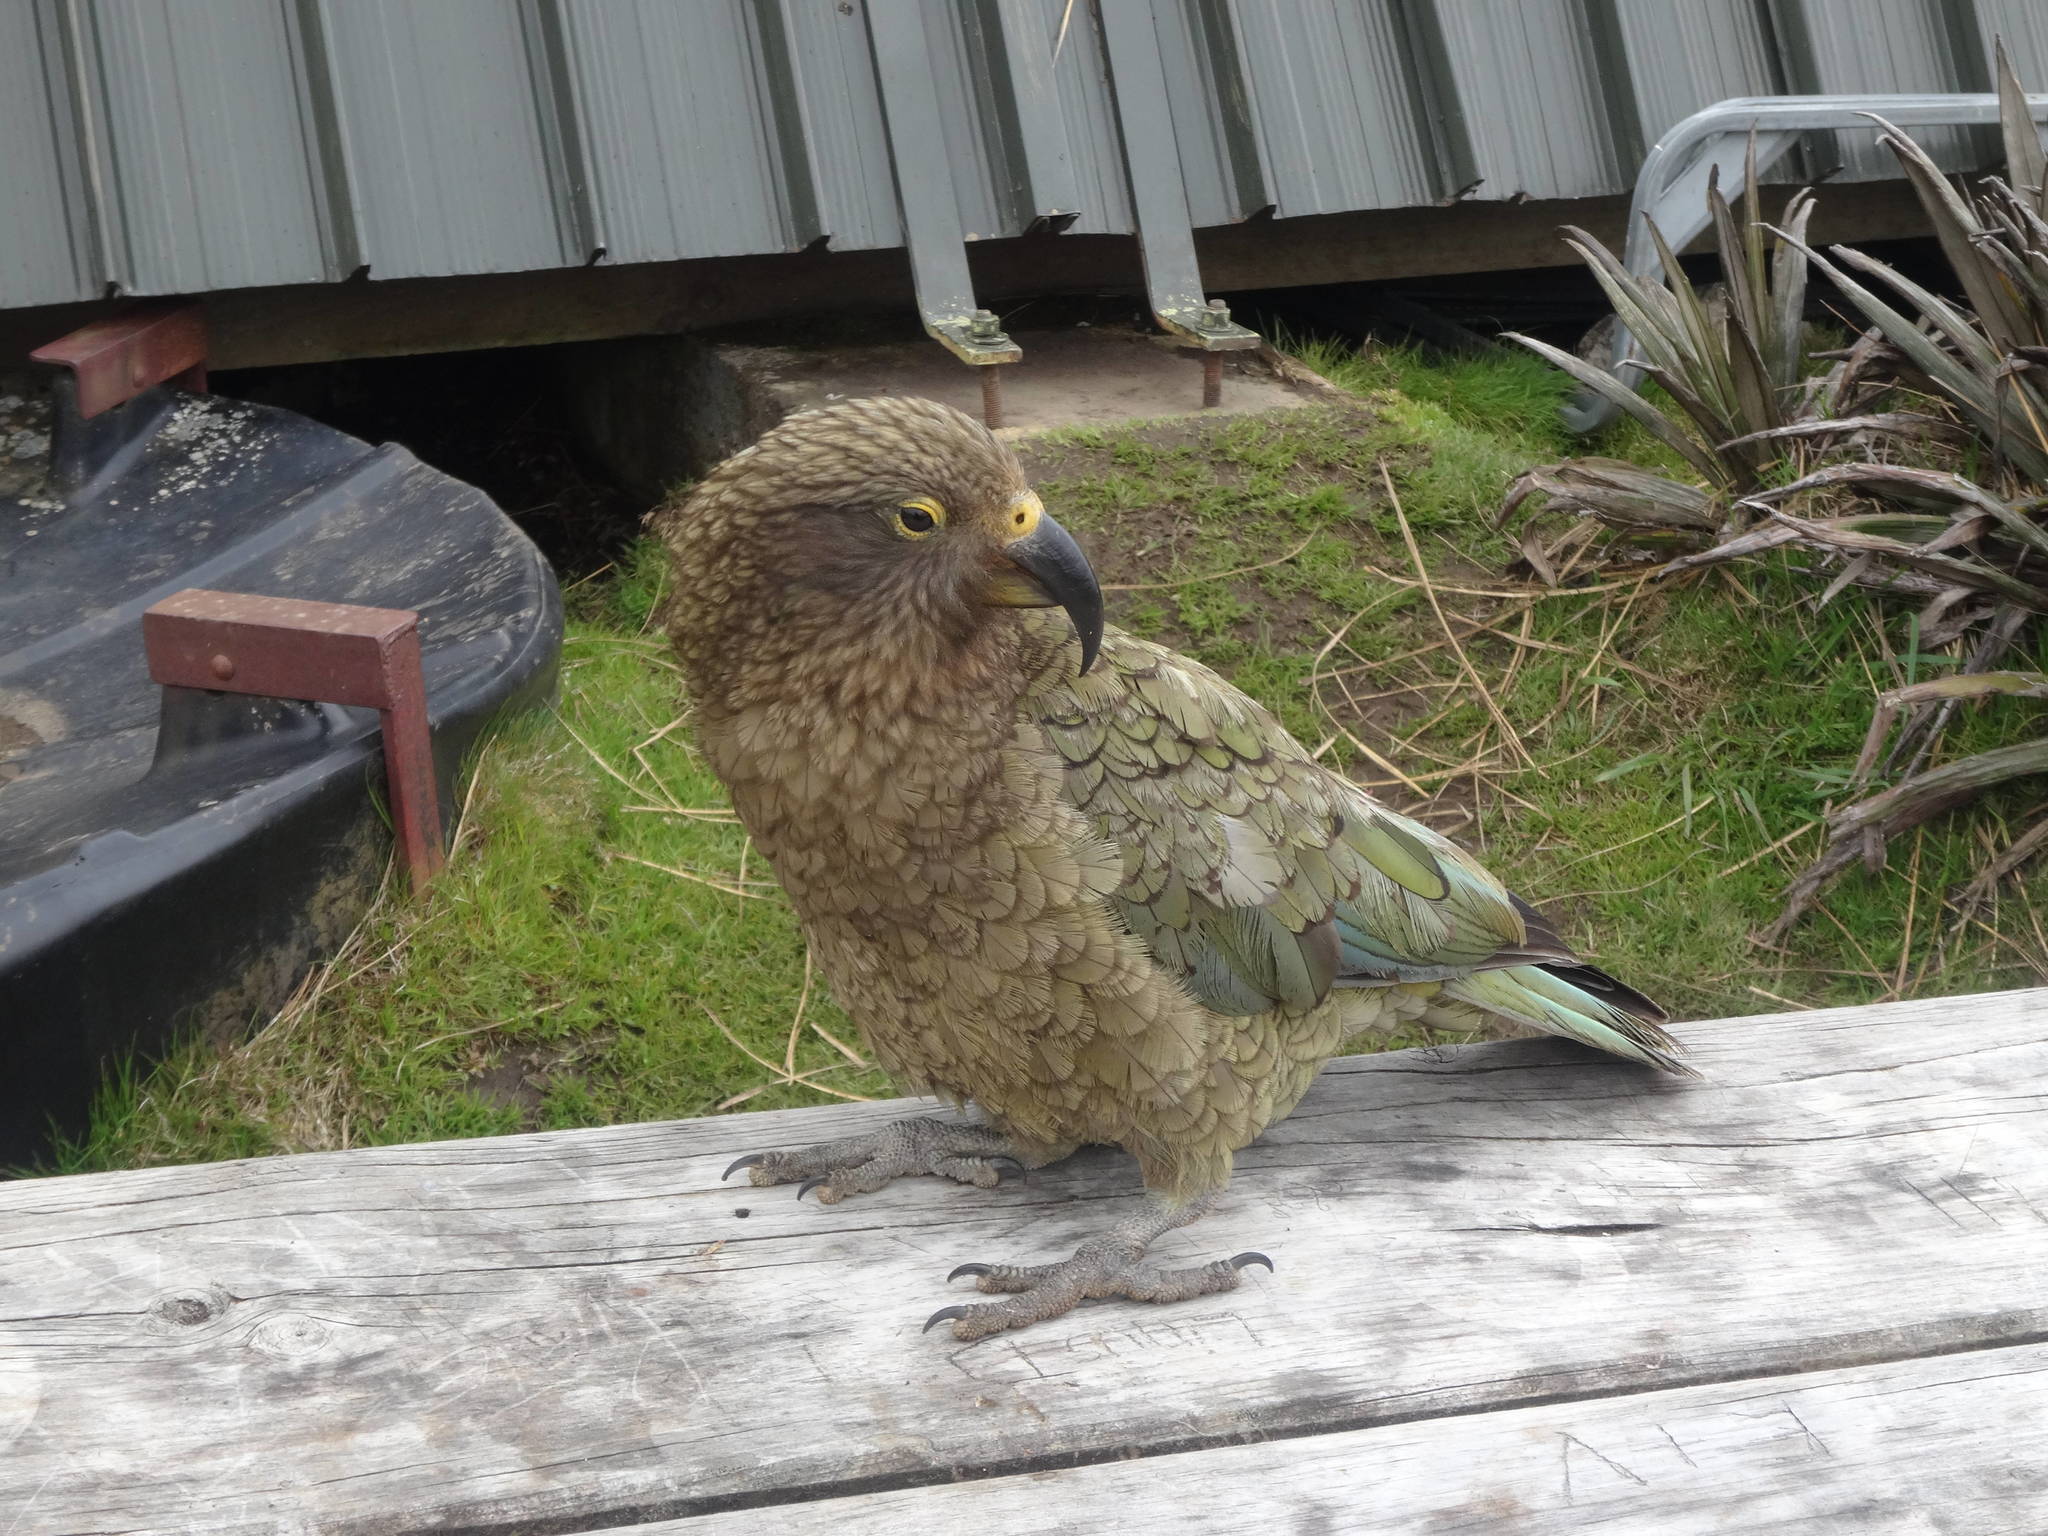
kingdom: Animalia
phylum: Chordata
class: Aves
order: Psittaciformes
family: Psittacidae
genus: Nestor
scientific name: Nestor notabilis
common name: Kea
